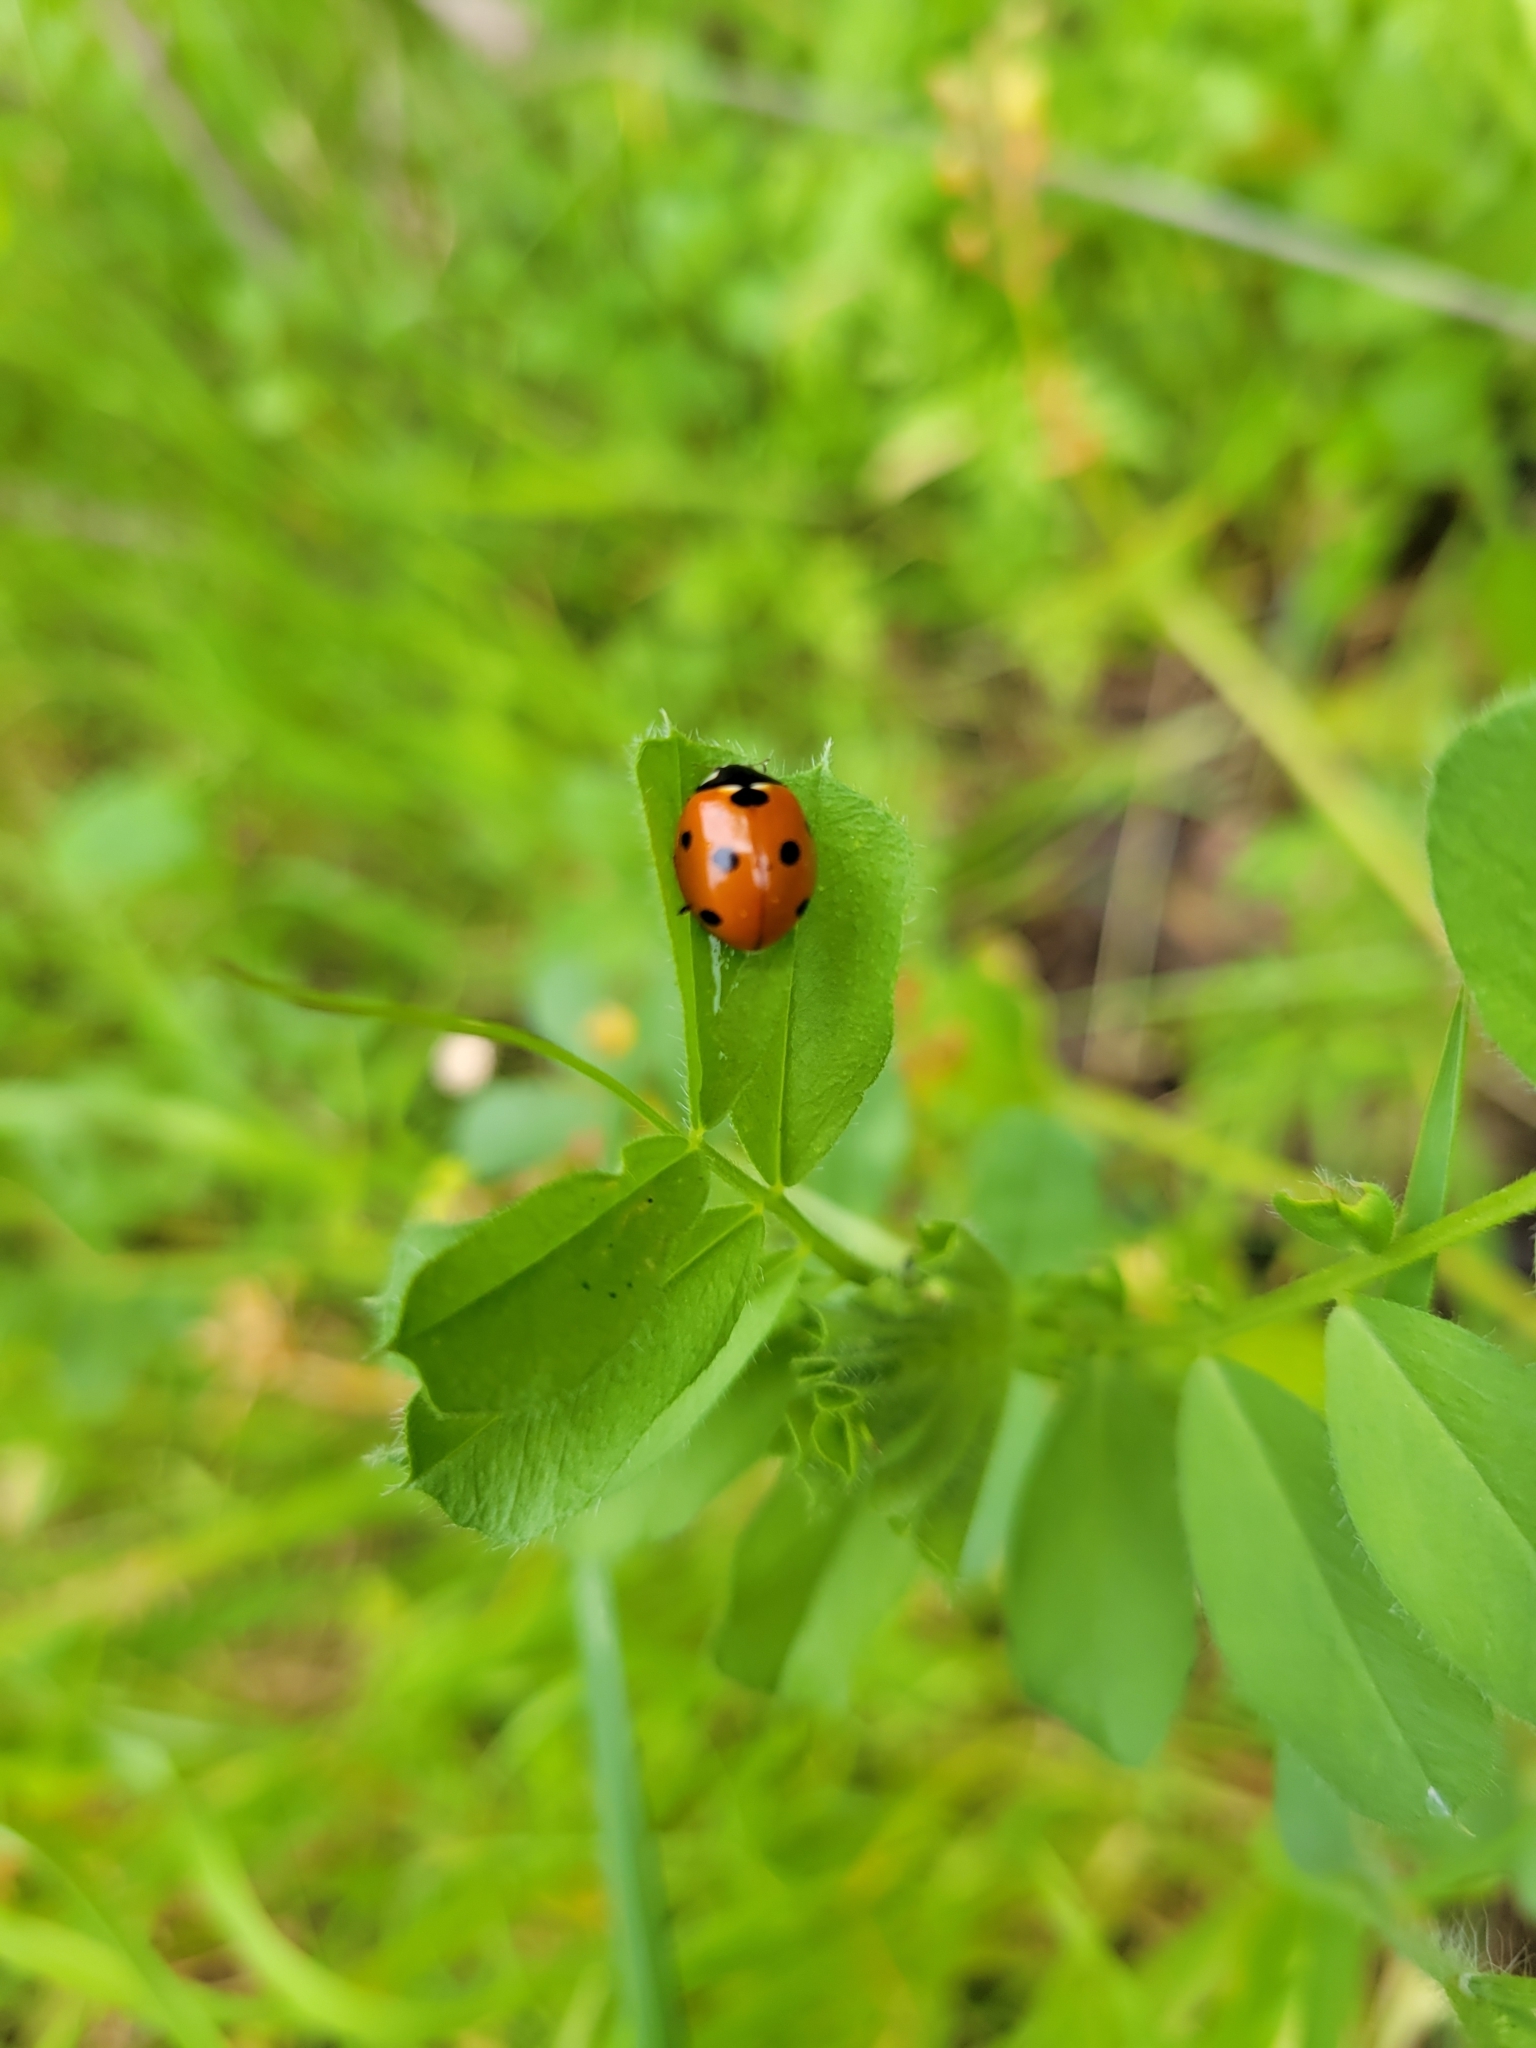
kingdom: Animalia
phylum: Arthropoda
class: Insecta
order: Coleoptera
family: Coccinellidae
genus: Coccinella
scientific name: Coccinella septempunctata
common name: Sevenspotted lady beetle
